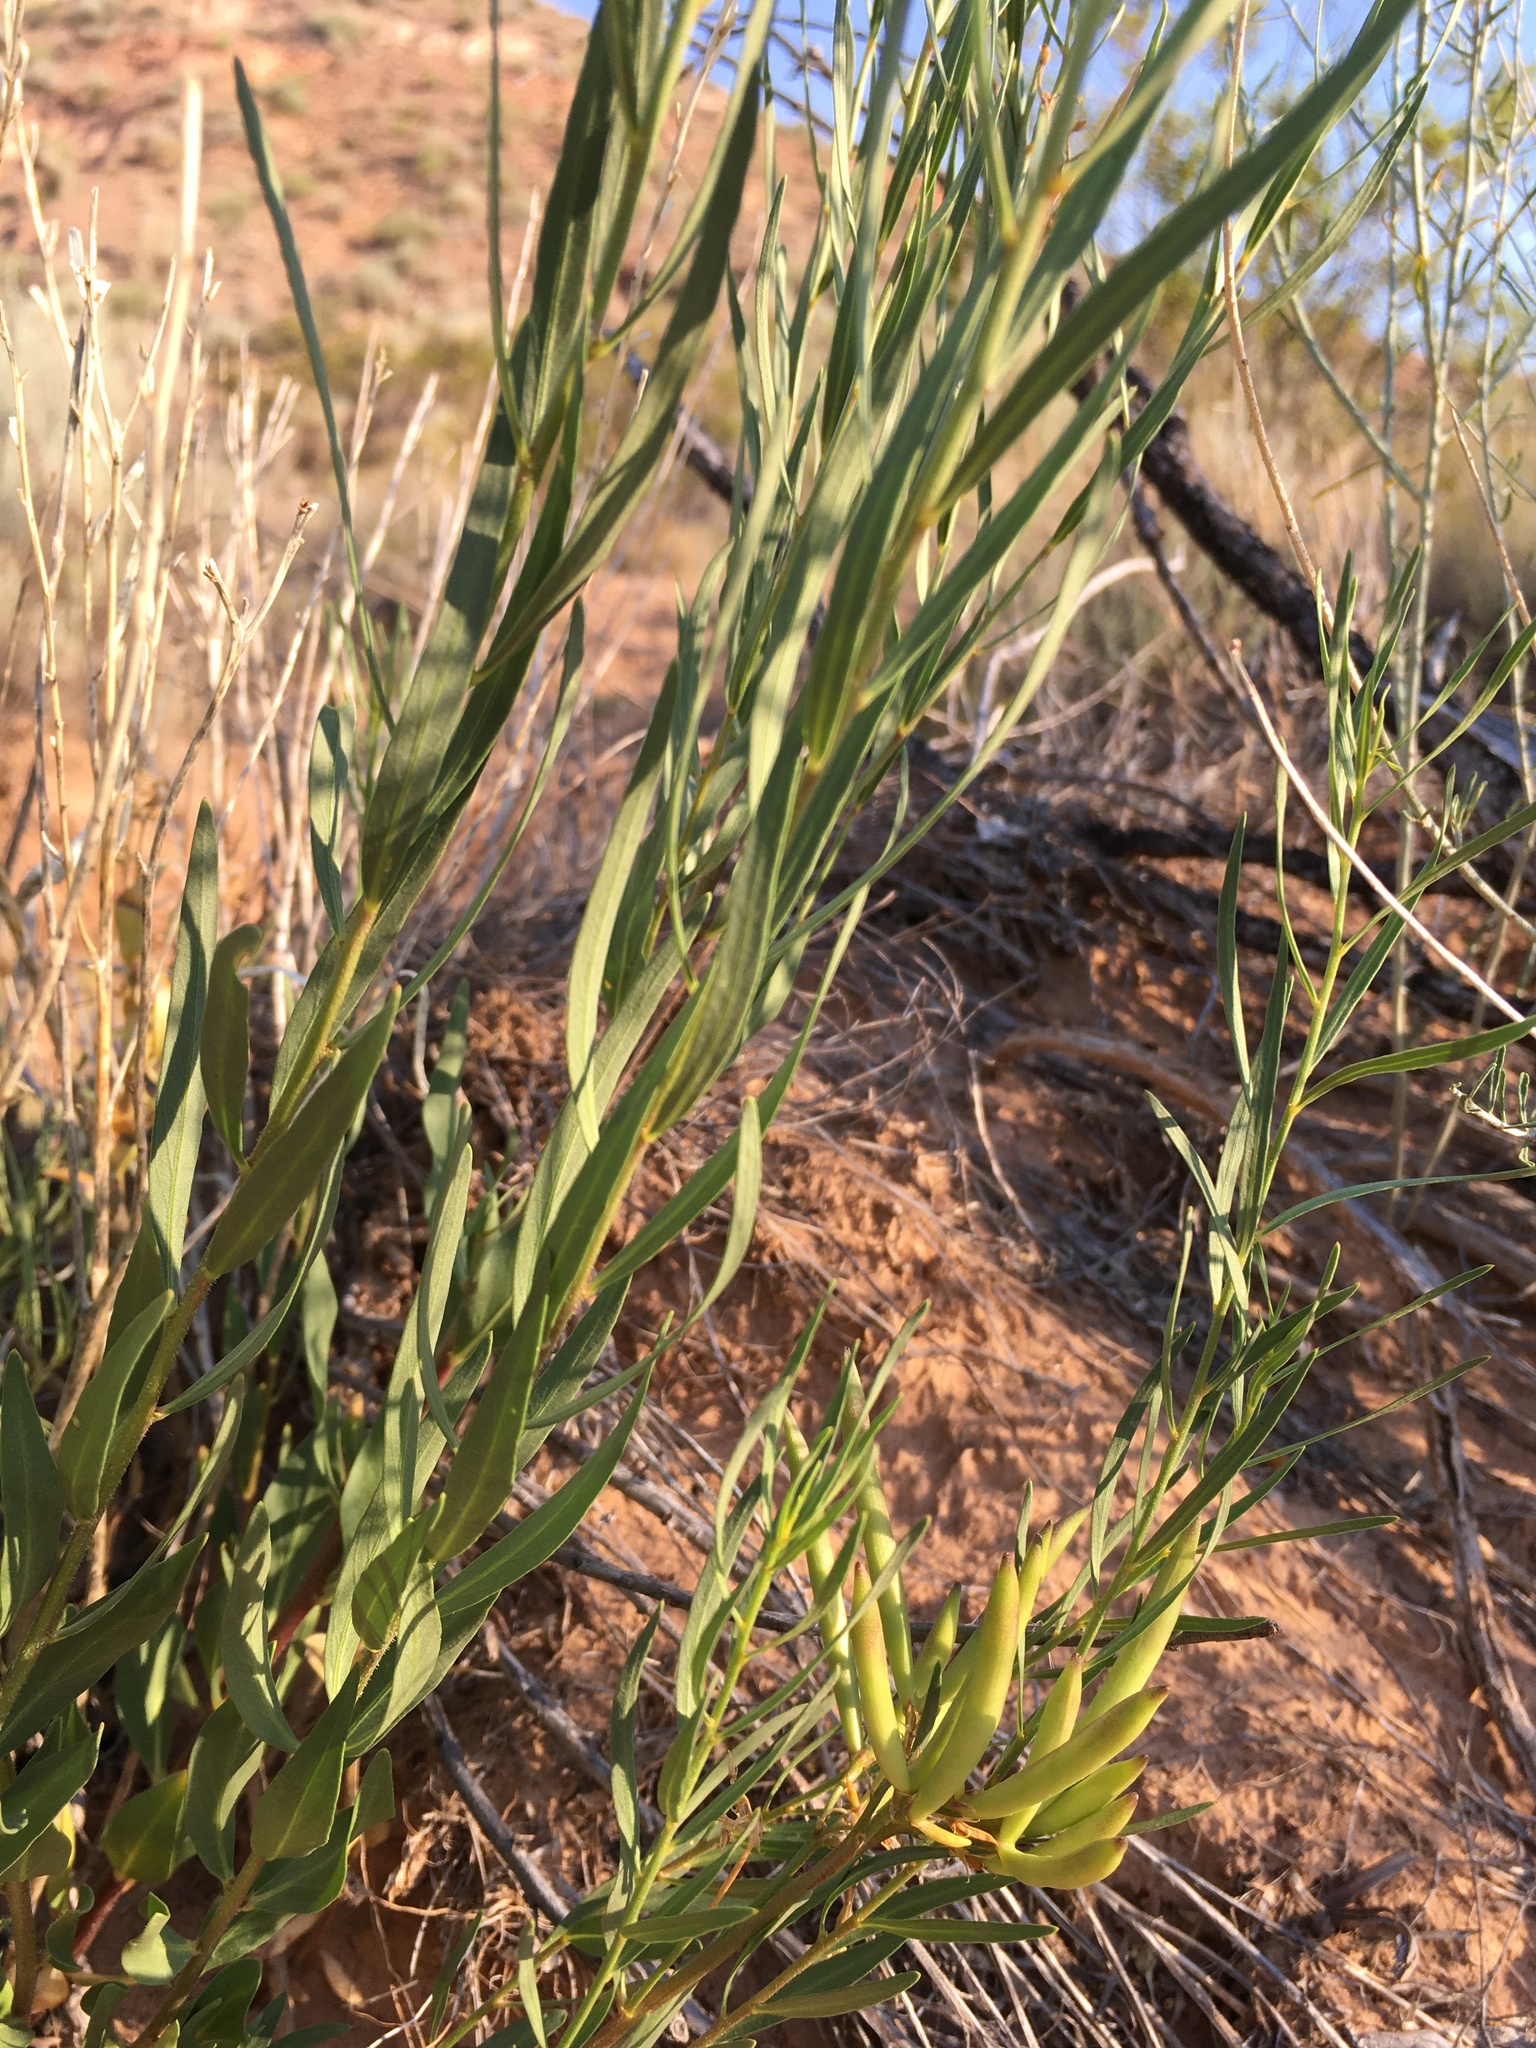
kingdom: Plantae
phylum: Tracheophyta
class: Magnoliopsida
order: Gentianales
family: Apocynaceae
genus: Amsonia
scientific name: Amsonia fugatei
